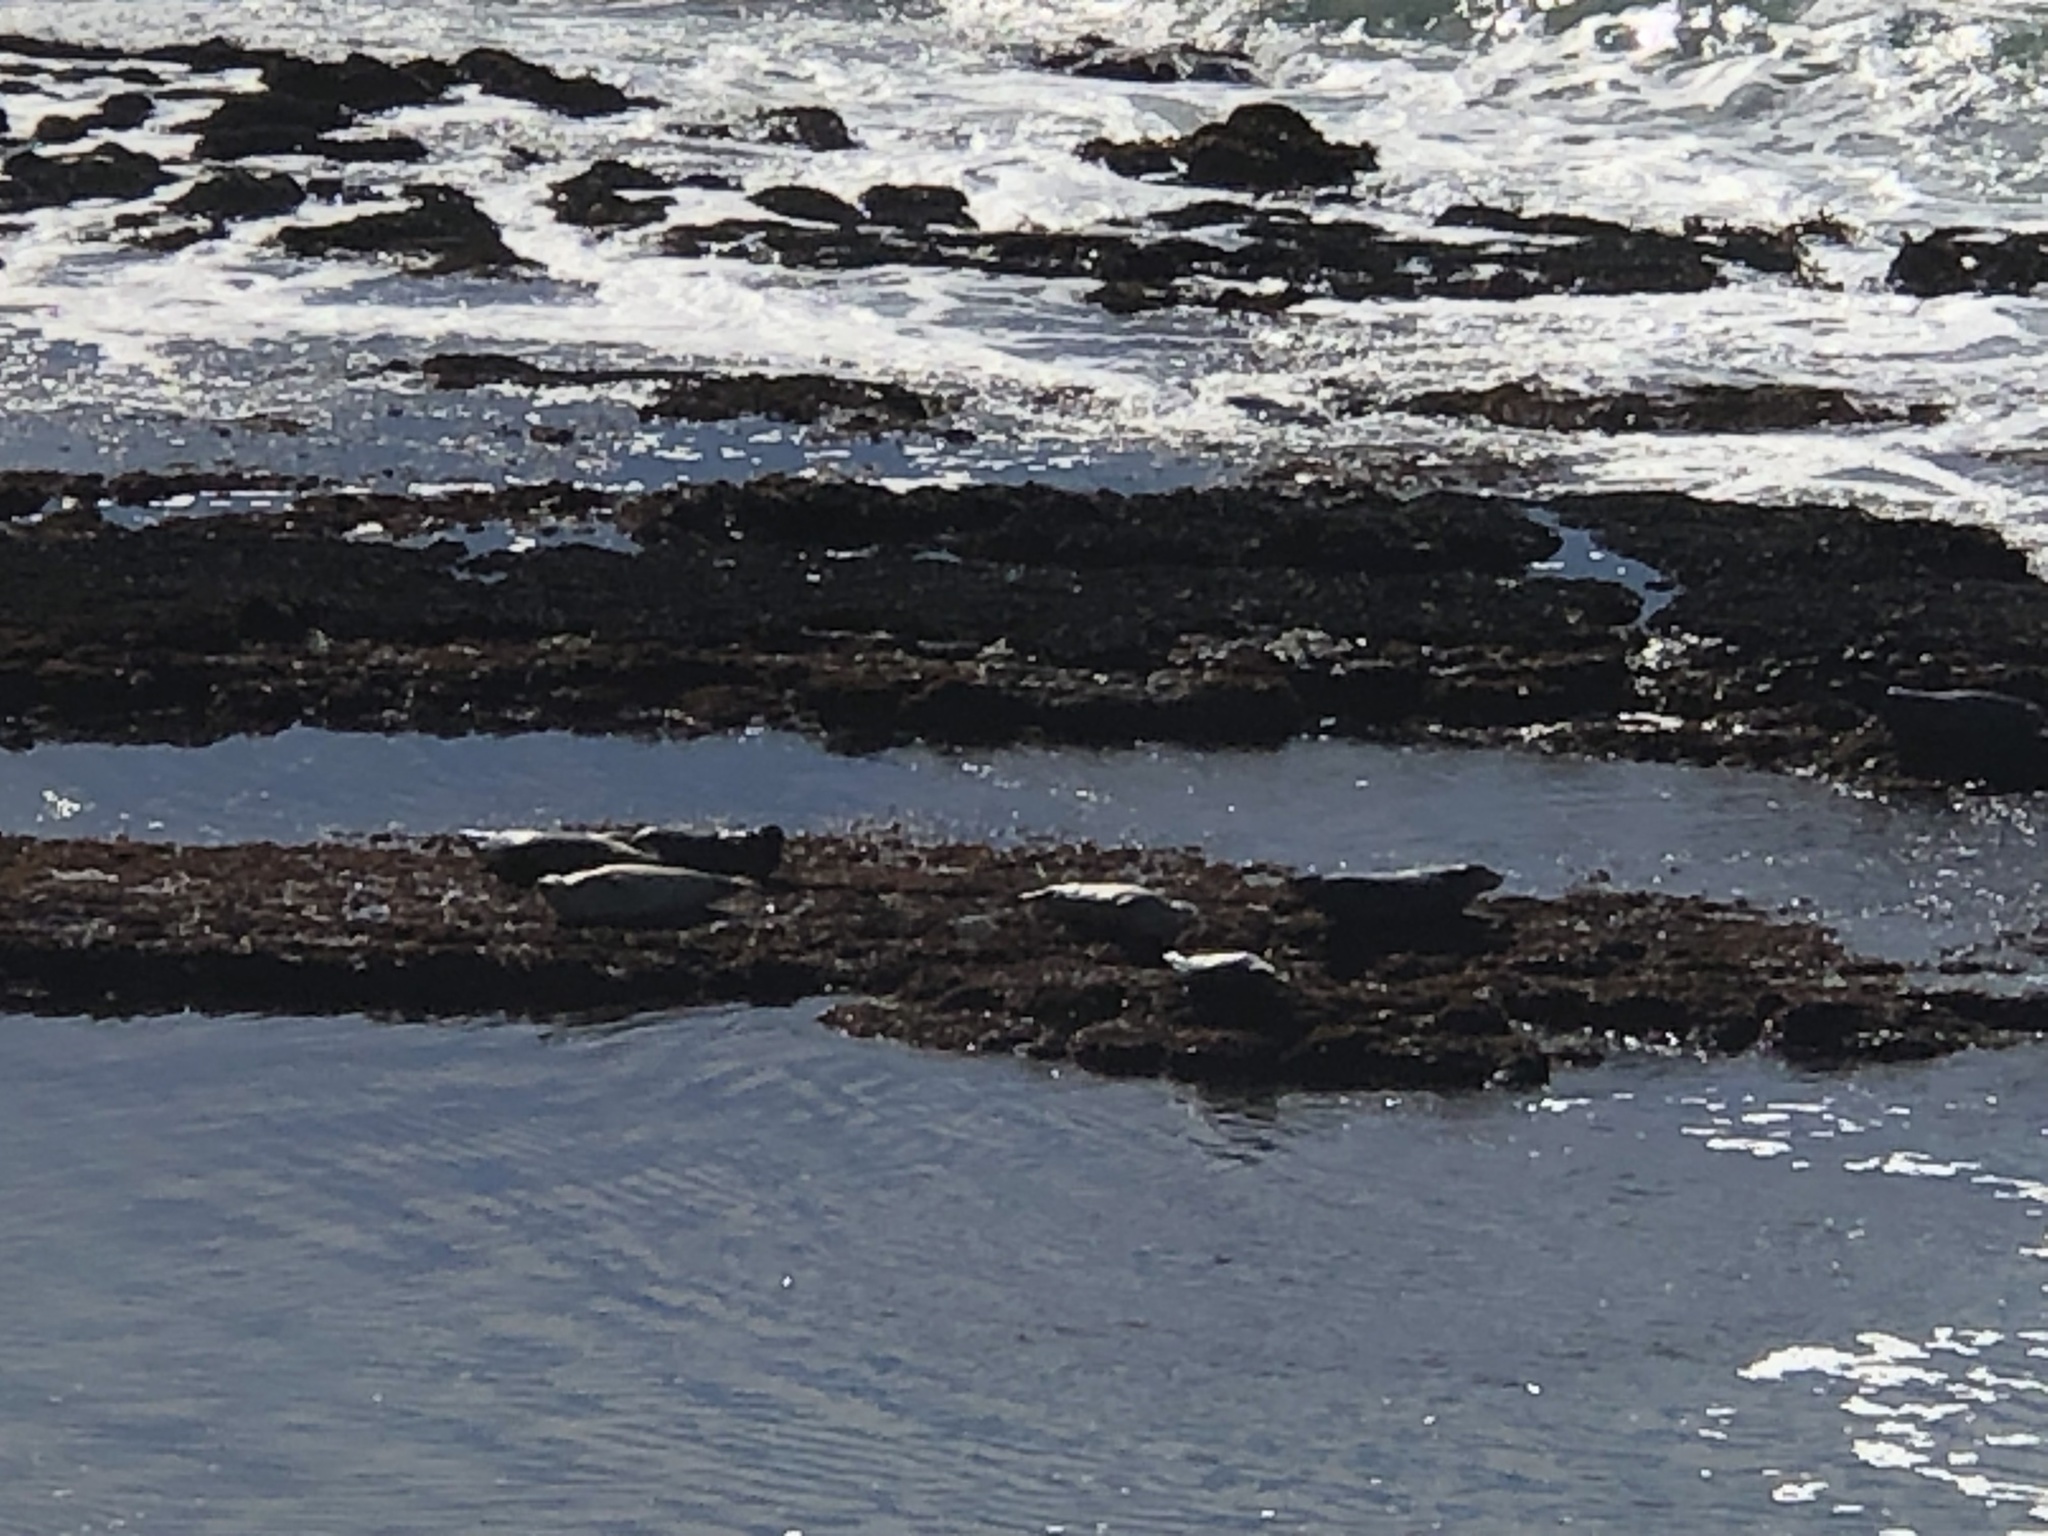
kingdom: Animalia
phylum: Chordata
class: Mammalia
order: Carnivora
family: Phocidae
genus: Phoca
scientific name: Phoca vitulina
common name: Harbor seal
